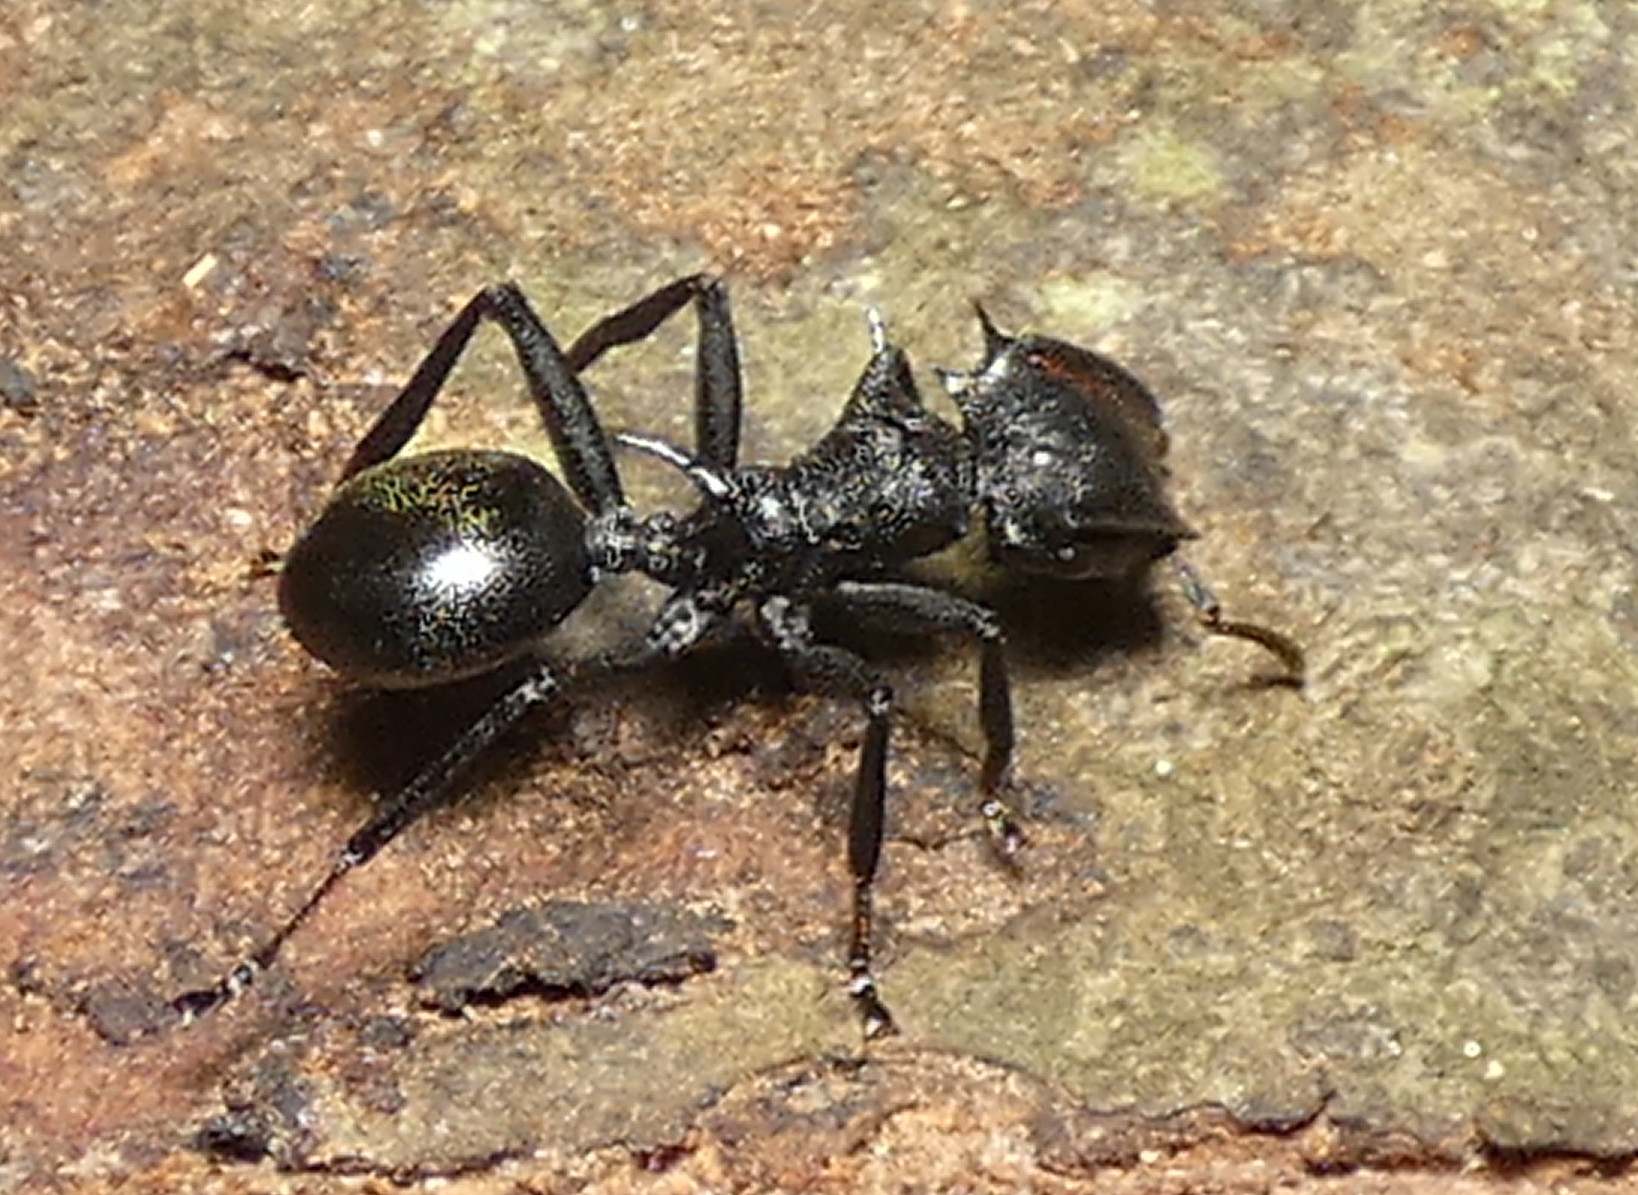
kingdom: Animalia
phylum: Arthropoda
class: Insecta
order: Hymenoptera
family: Formicidae
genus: Cephalotes
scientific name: Cephalotes atratus
